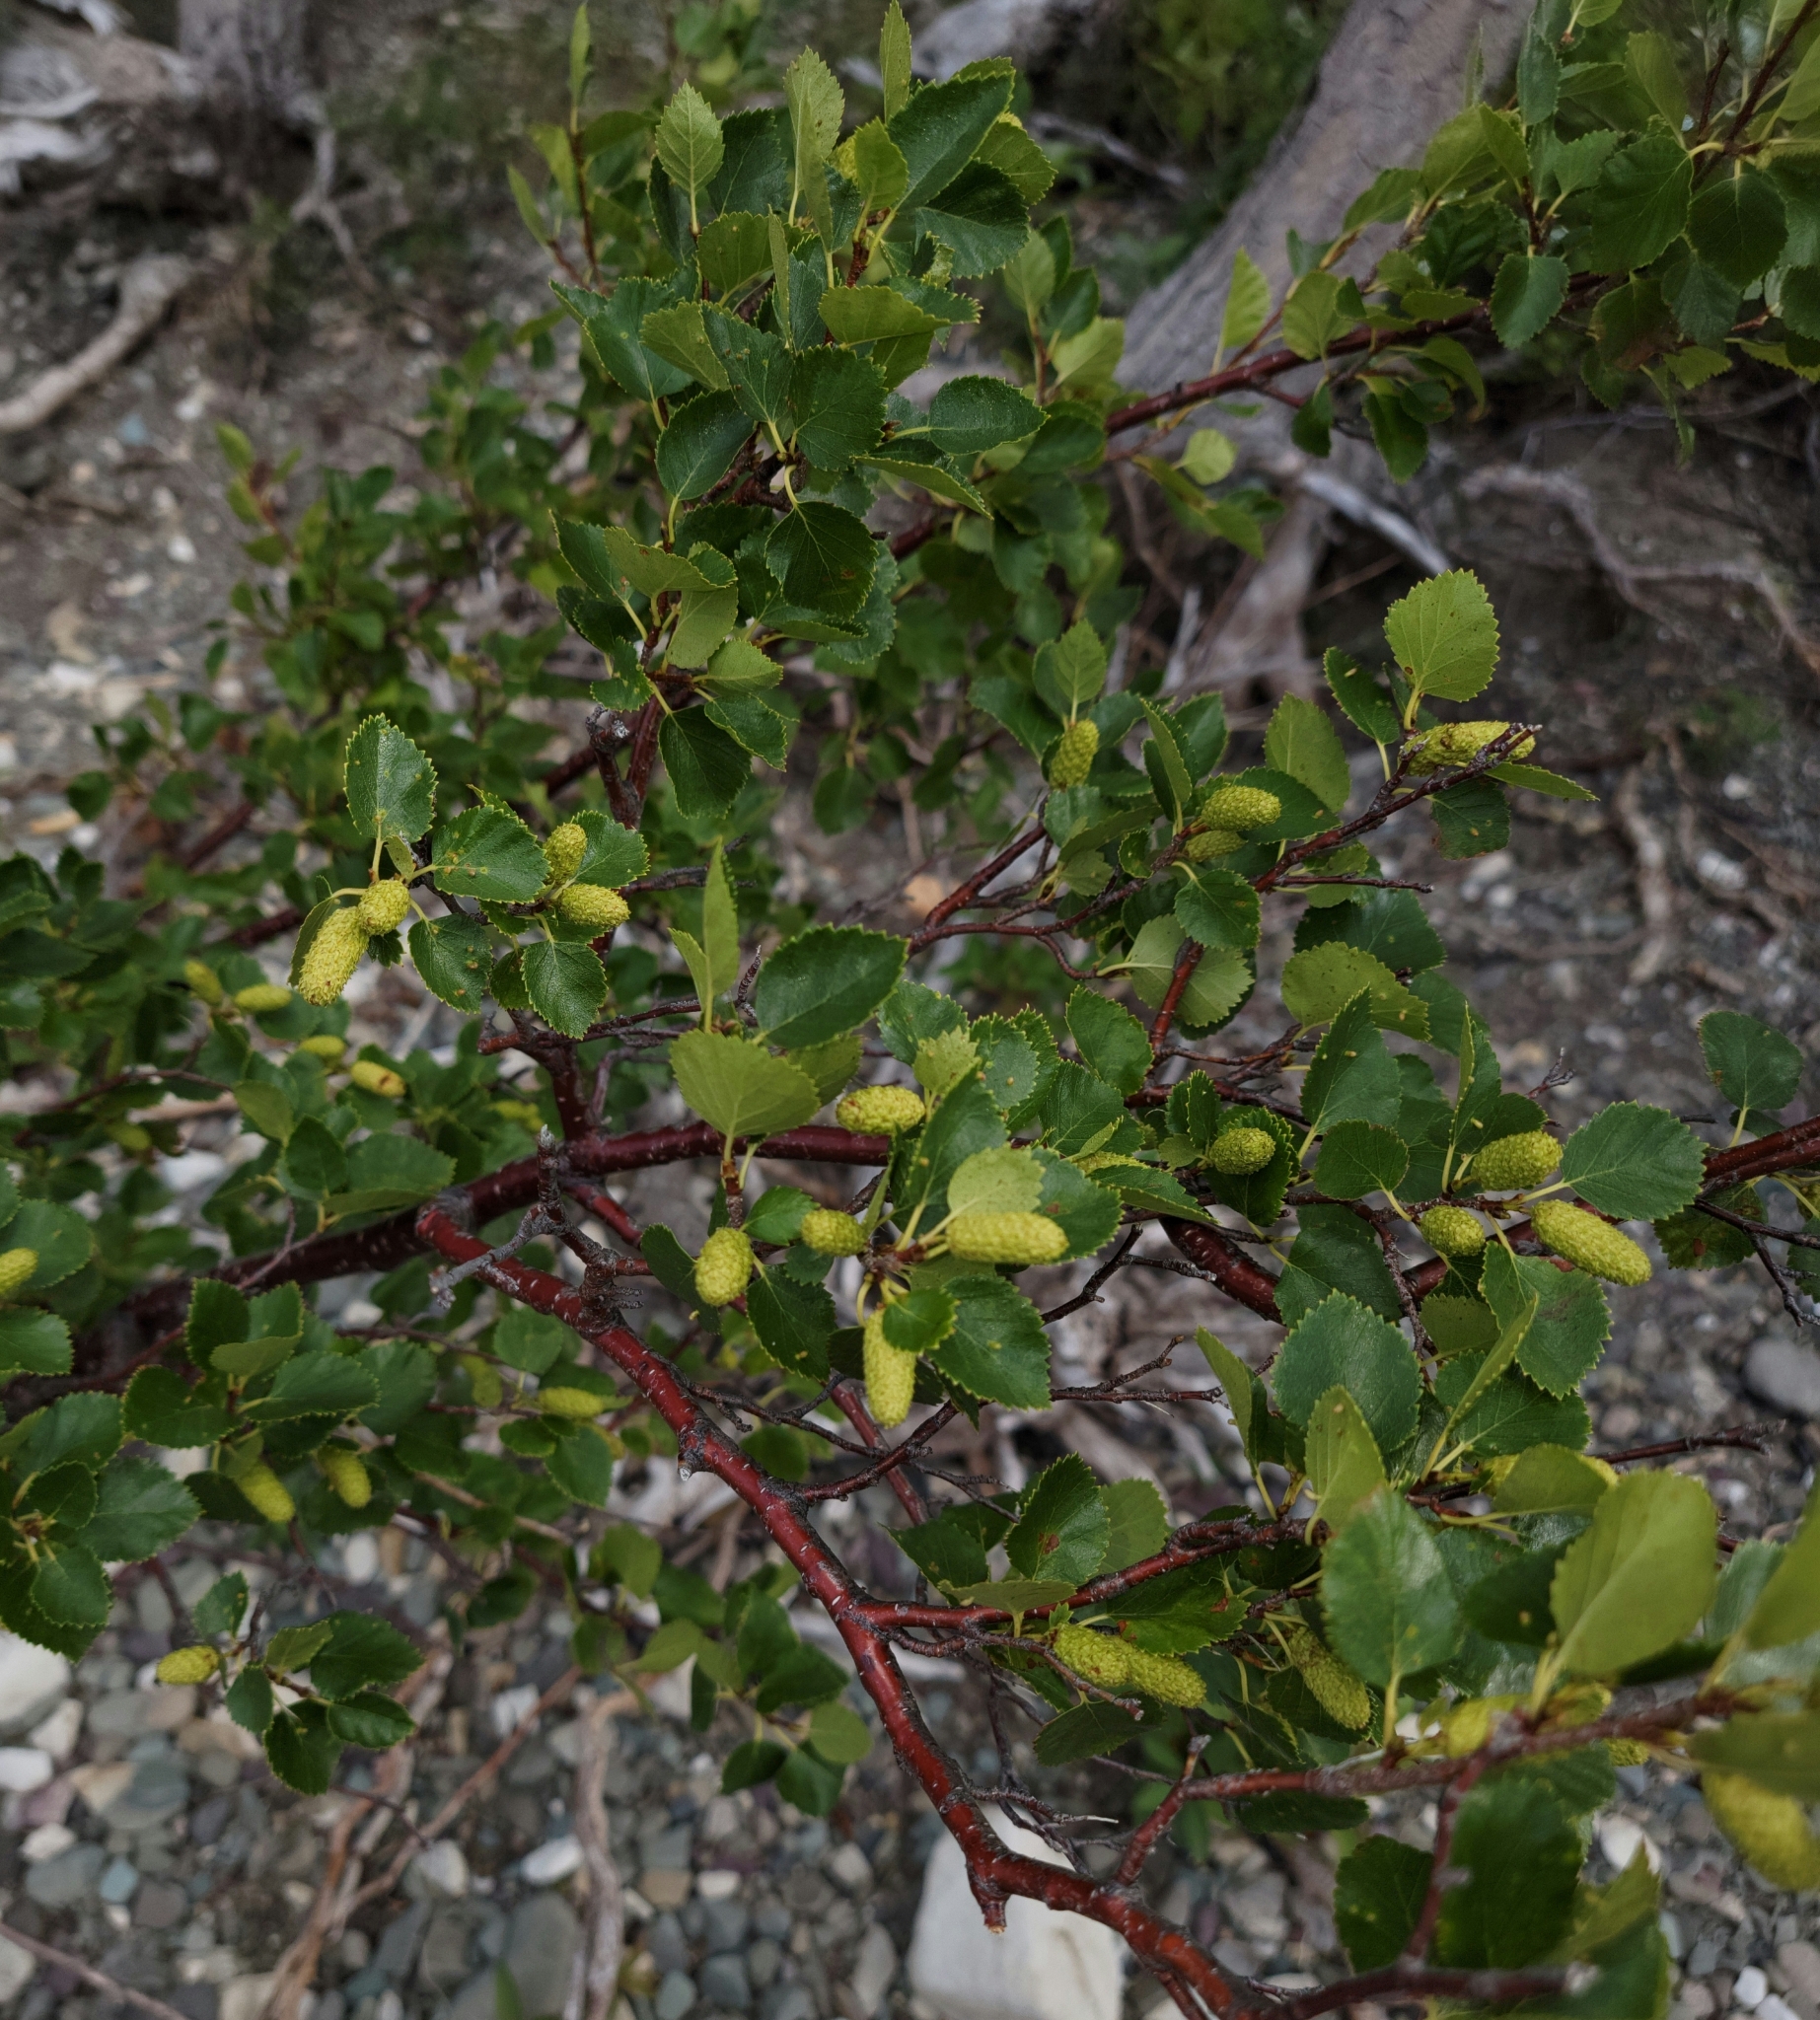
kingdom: Plantae
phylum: Tracheophyta
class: Magnoliopsida
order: Fagales
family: Betulaceae
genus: Betula
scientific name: Betula glandulosa
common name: Dwarf birch
